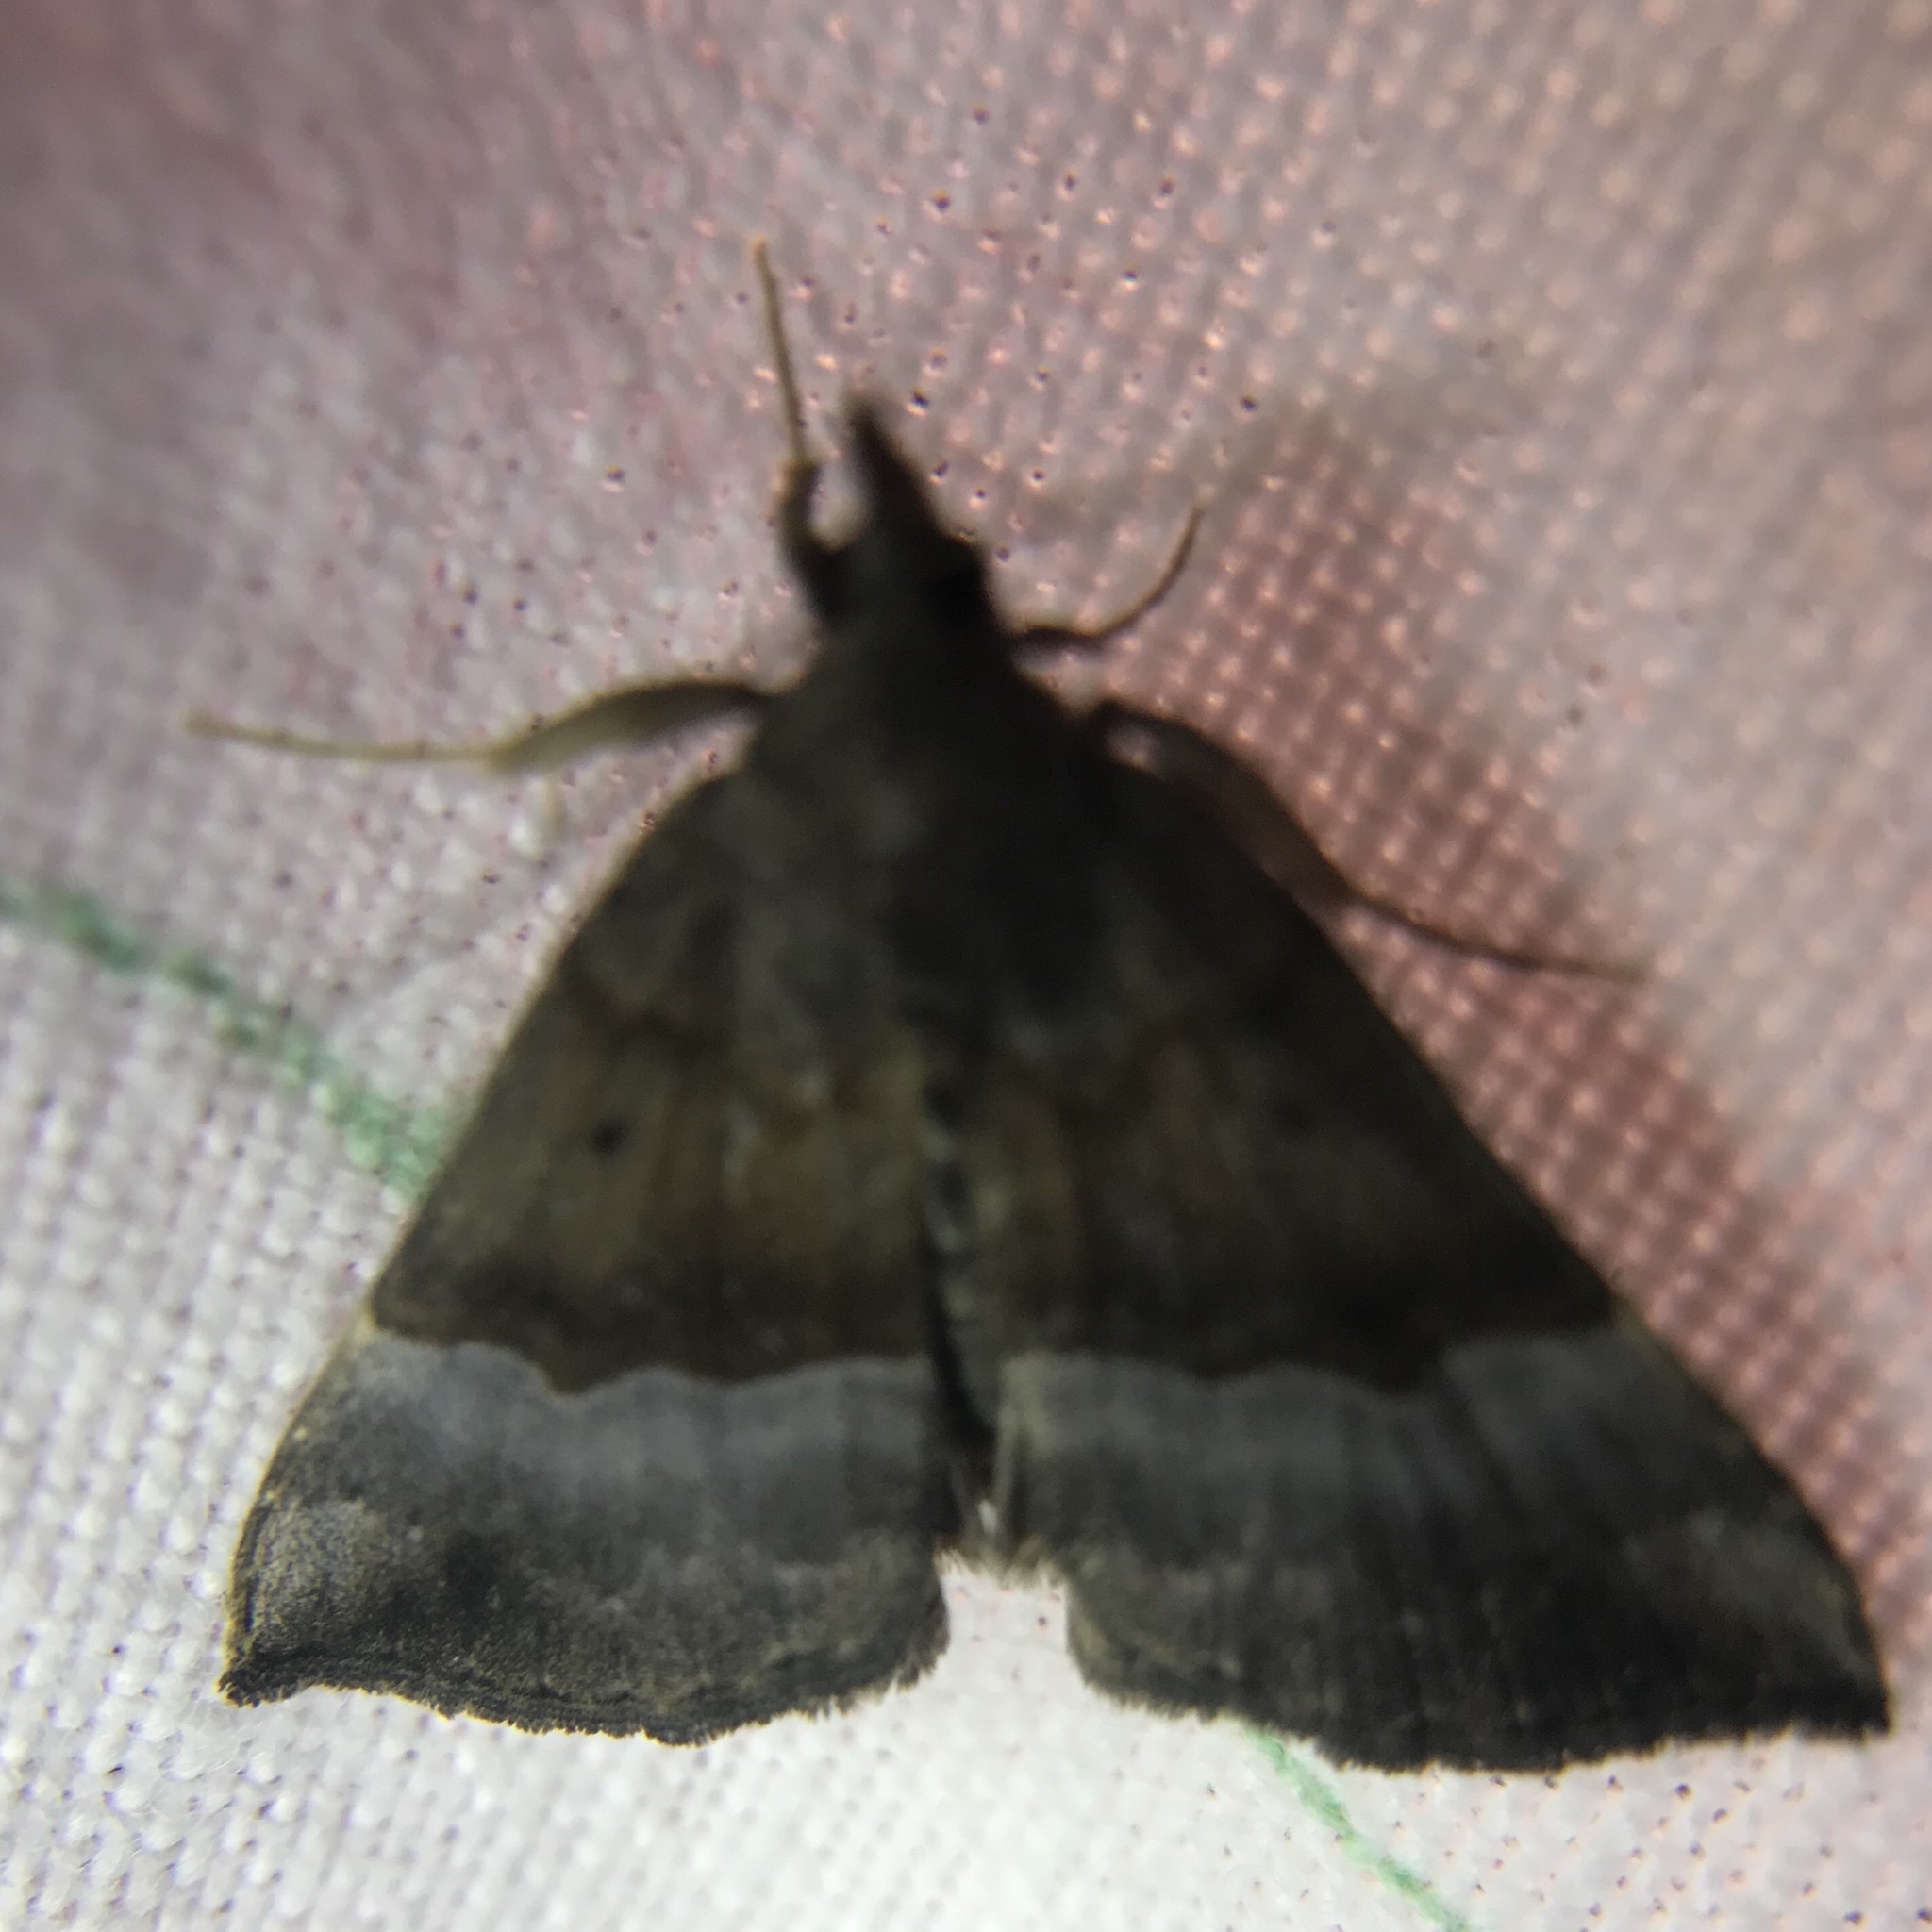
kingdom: Animalia
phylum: Arthropoda
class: Insecta
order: Lepidoptera
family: Erebidae
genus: Hypena
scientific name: Hypena madefactalis
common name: Gray-edged snout
